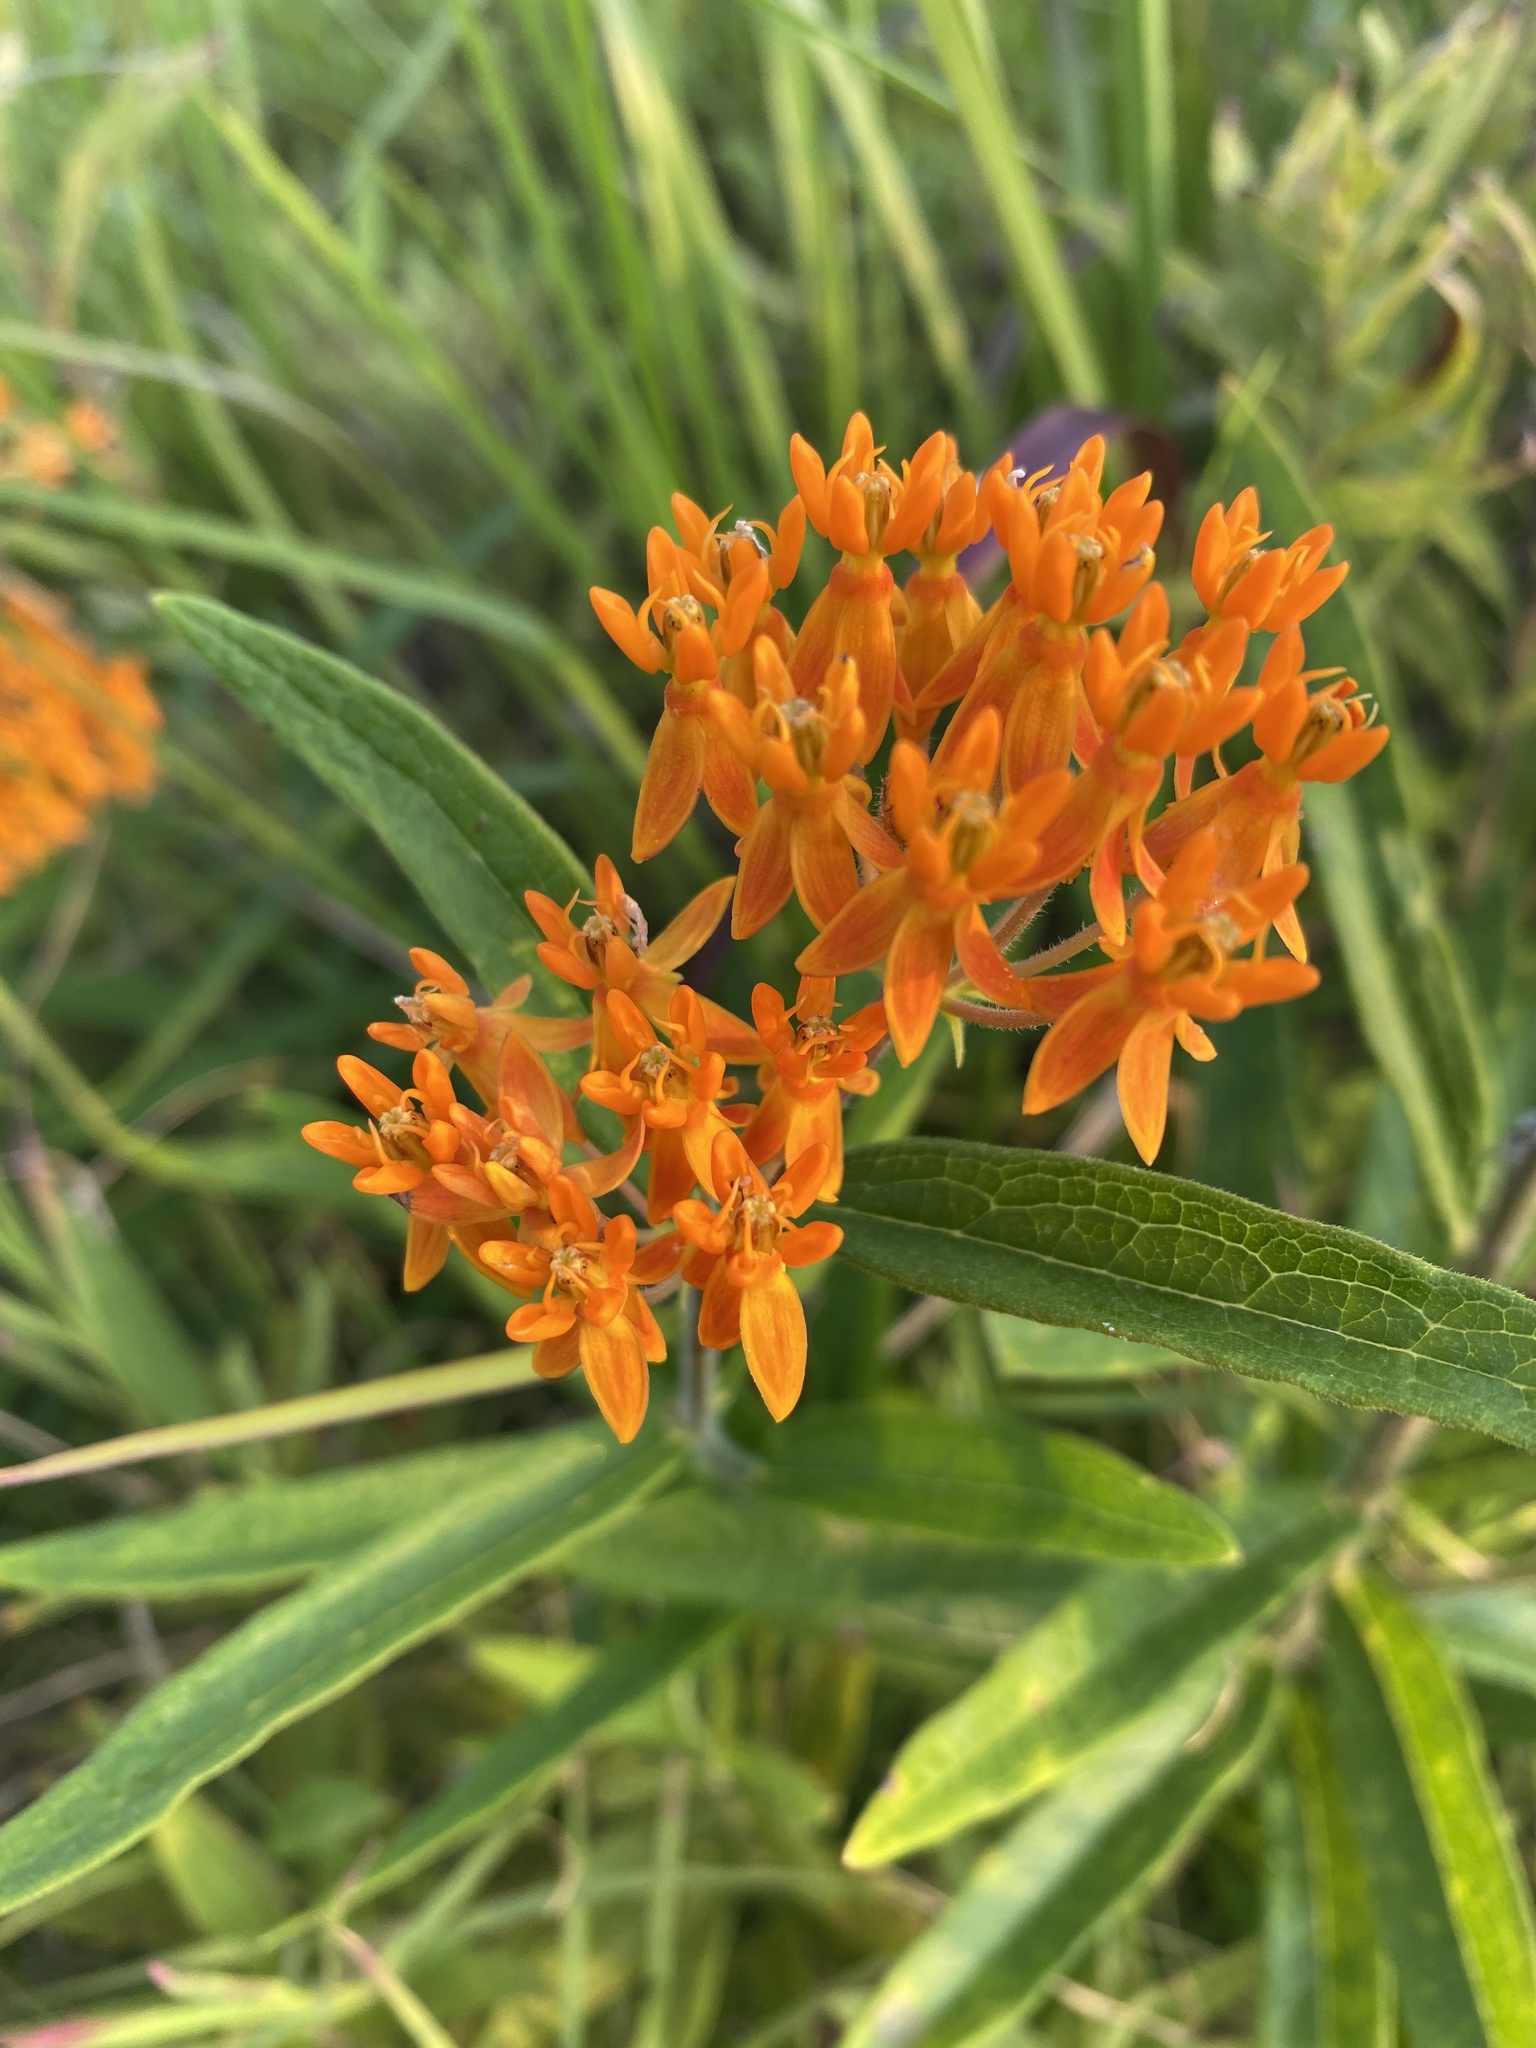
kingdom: Plantae
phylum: Tracheophyta
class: Magnoliopsida
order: Gentianales
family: Apocynaceae
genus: Asclepias
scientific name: Asclepias tuberosa
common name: Butterfly milkweed
